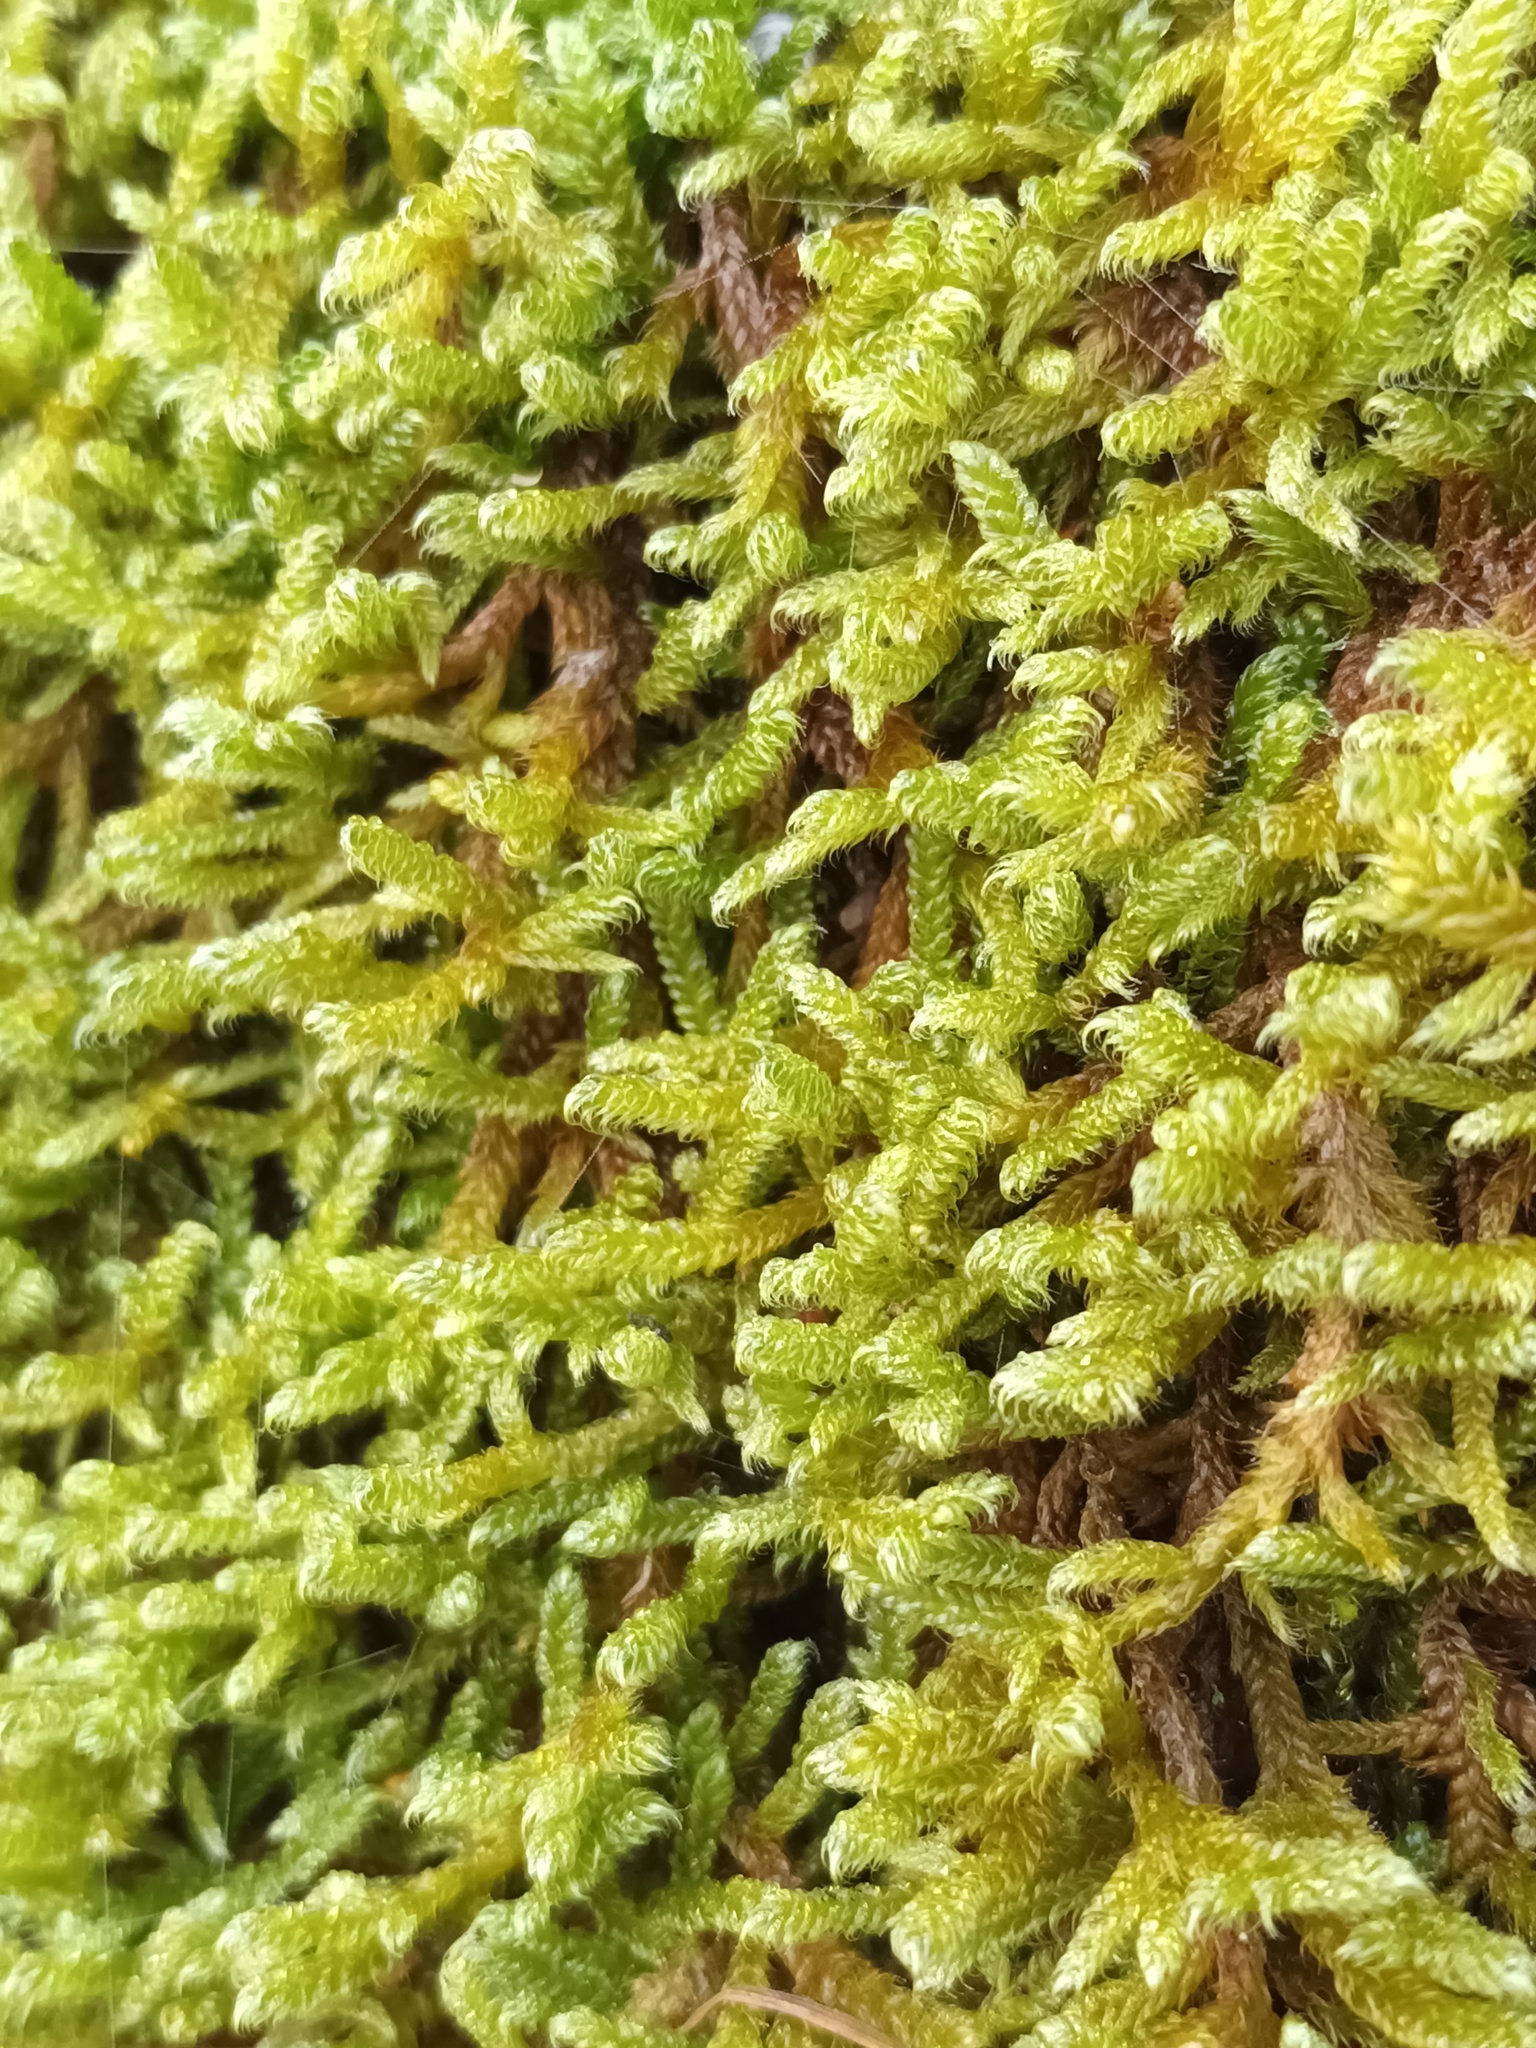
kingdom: Plantae
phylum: Bryophyta
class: Bryopsida
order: Hypnales
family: Hypnaceae
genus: Hypnum
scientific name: Hypnum cupressiforme
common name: Cypress-leaved plait-moss
